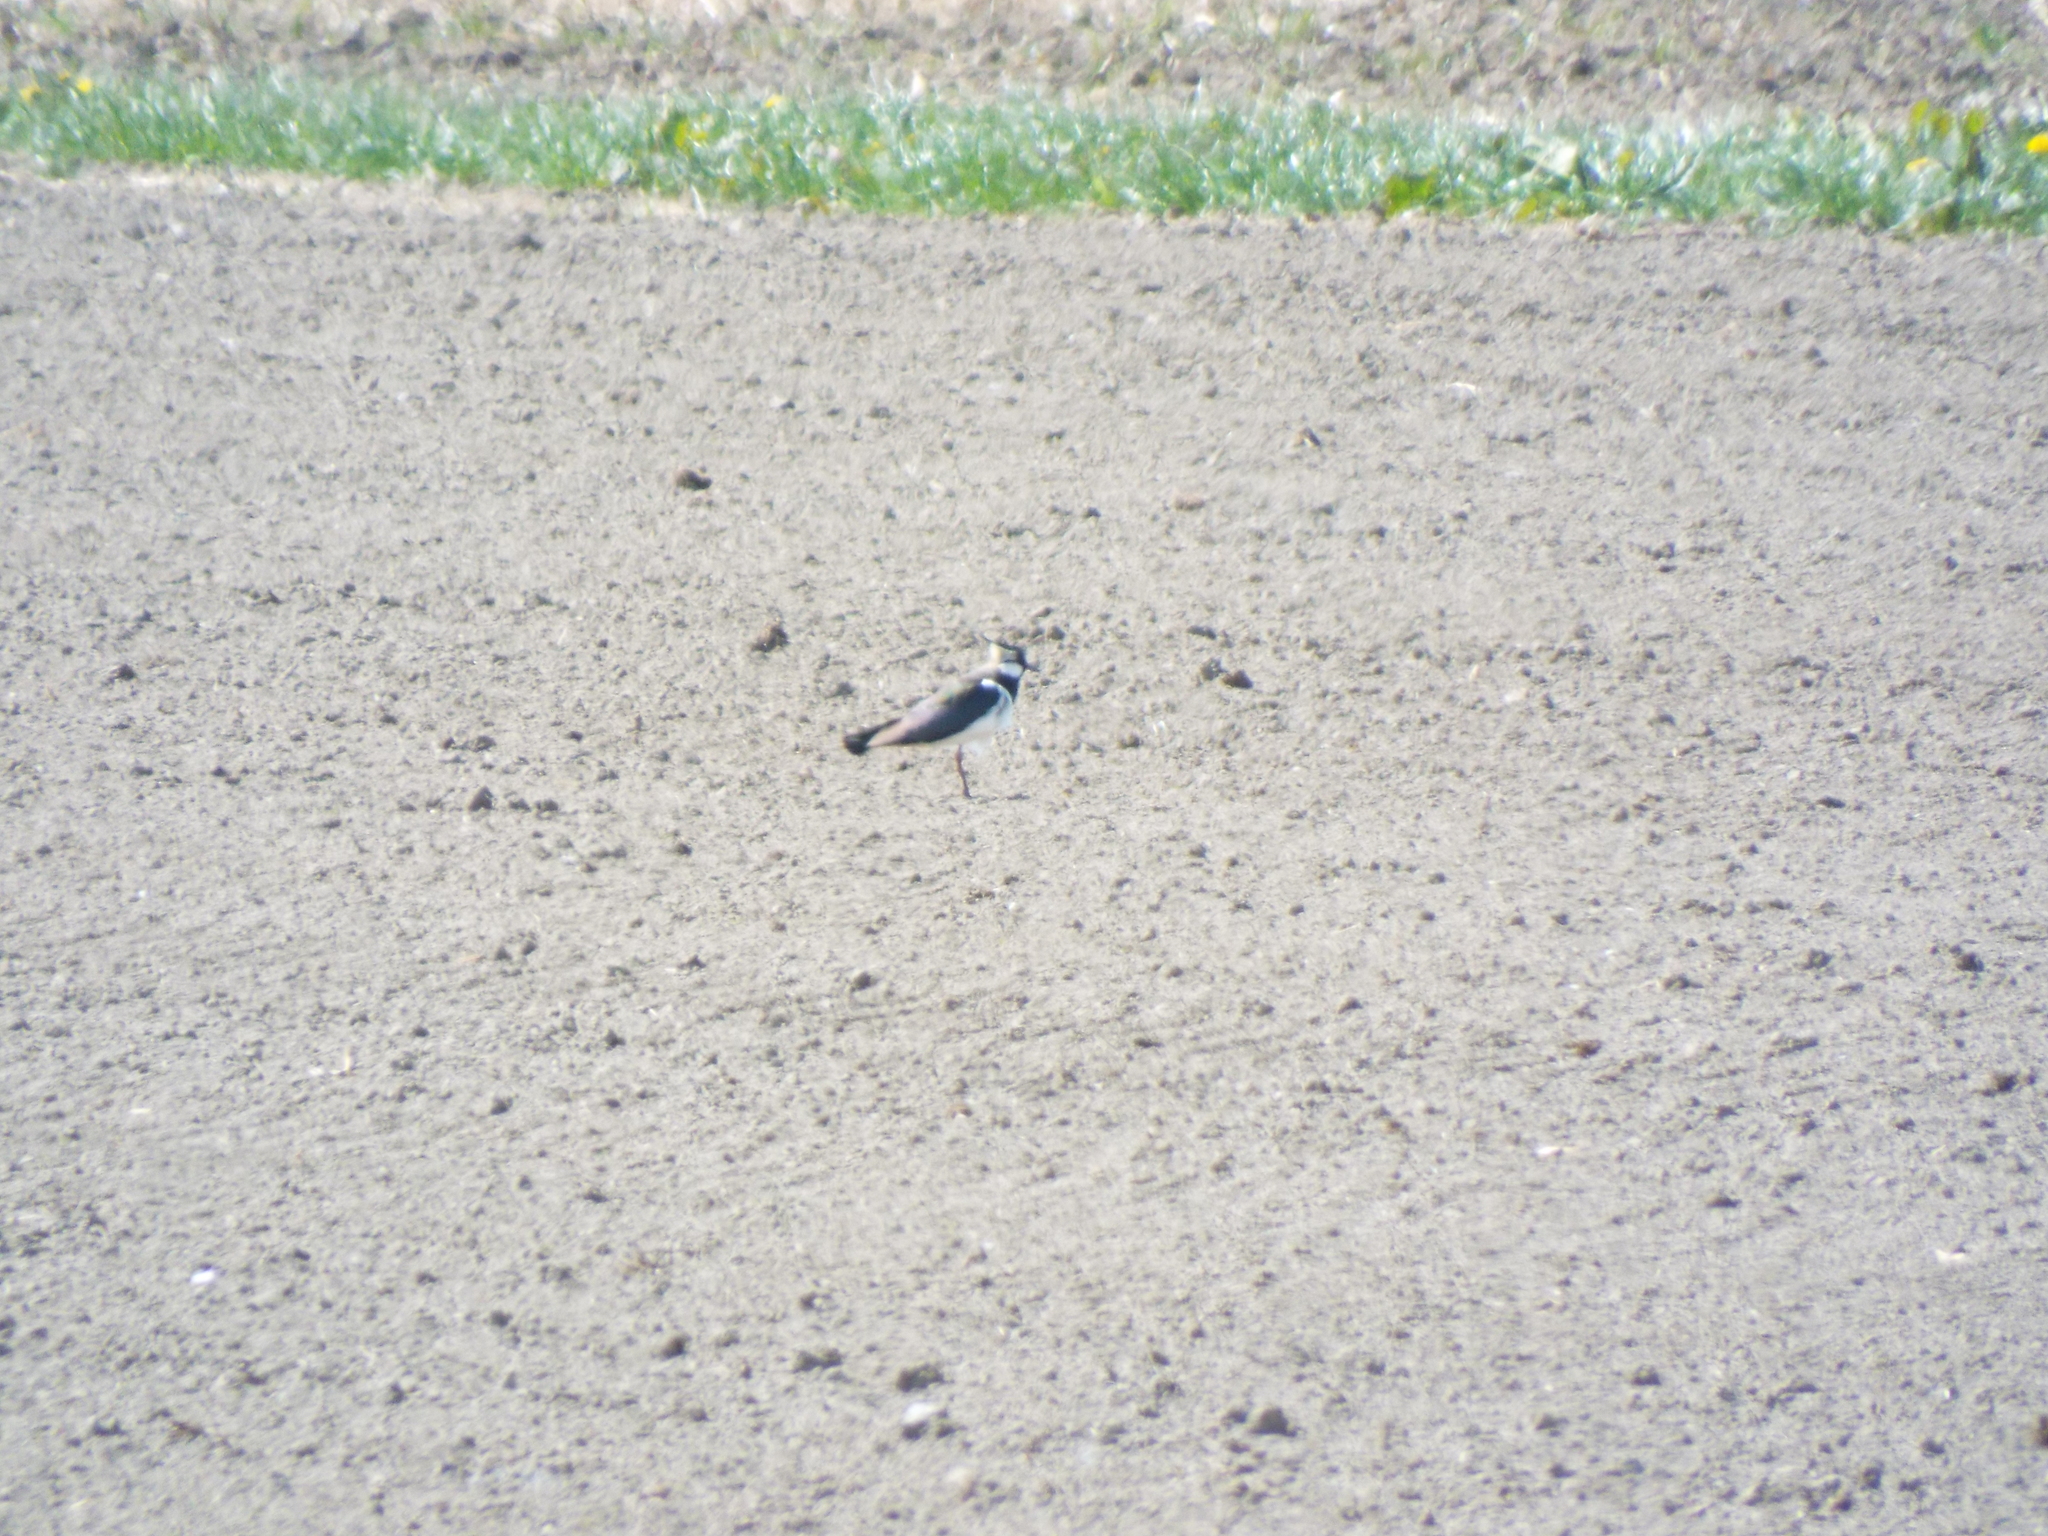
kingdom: Animalia
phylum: Chordata
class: Aves
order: Charadriiformes
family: Charadriidae
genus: Vanellus
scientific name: Vanellus vanellus
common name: Northern lapwing
